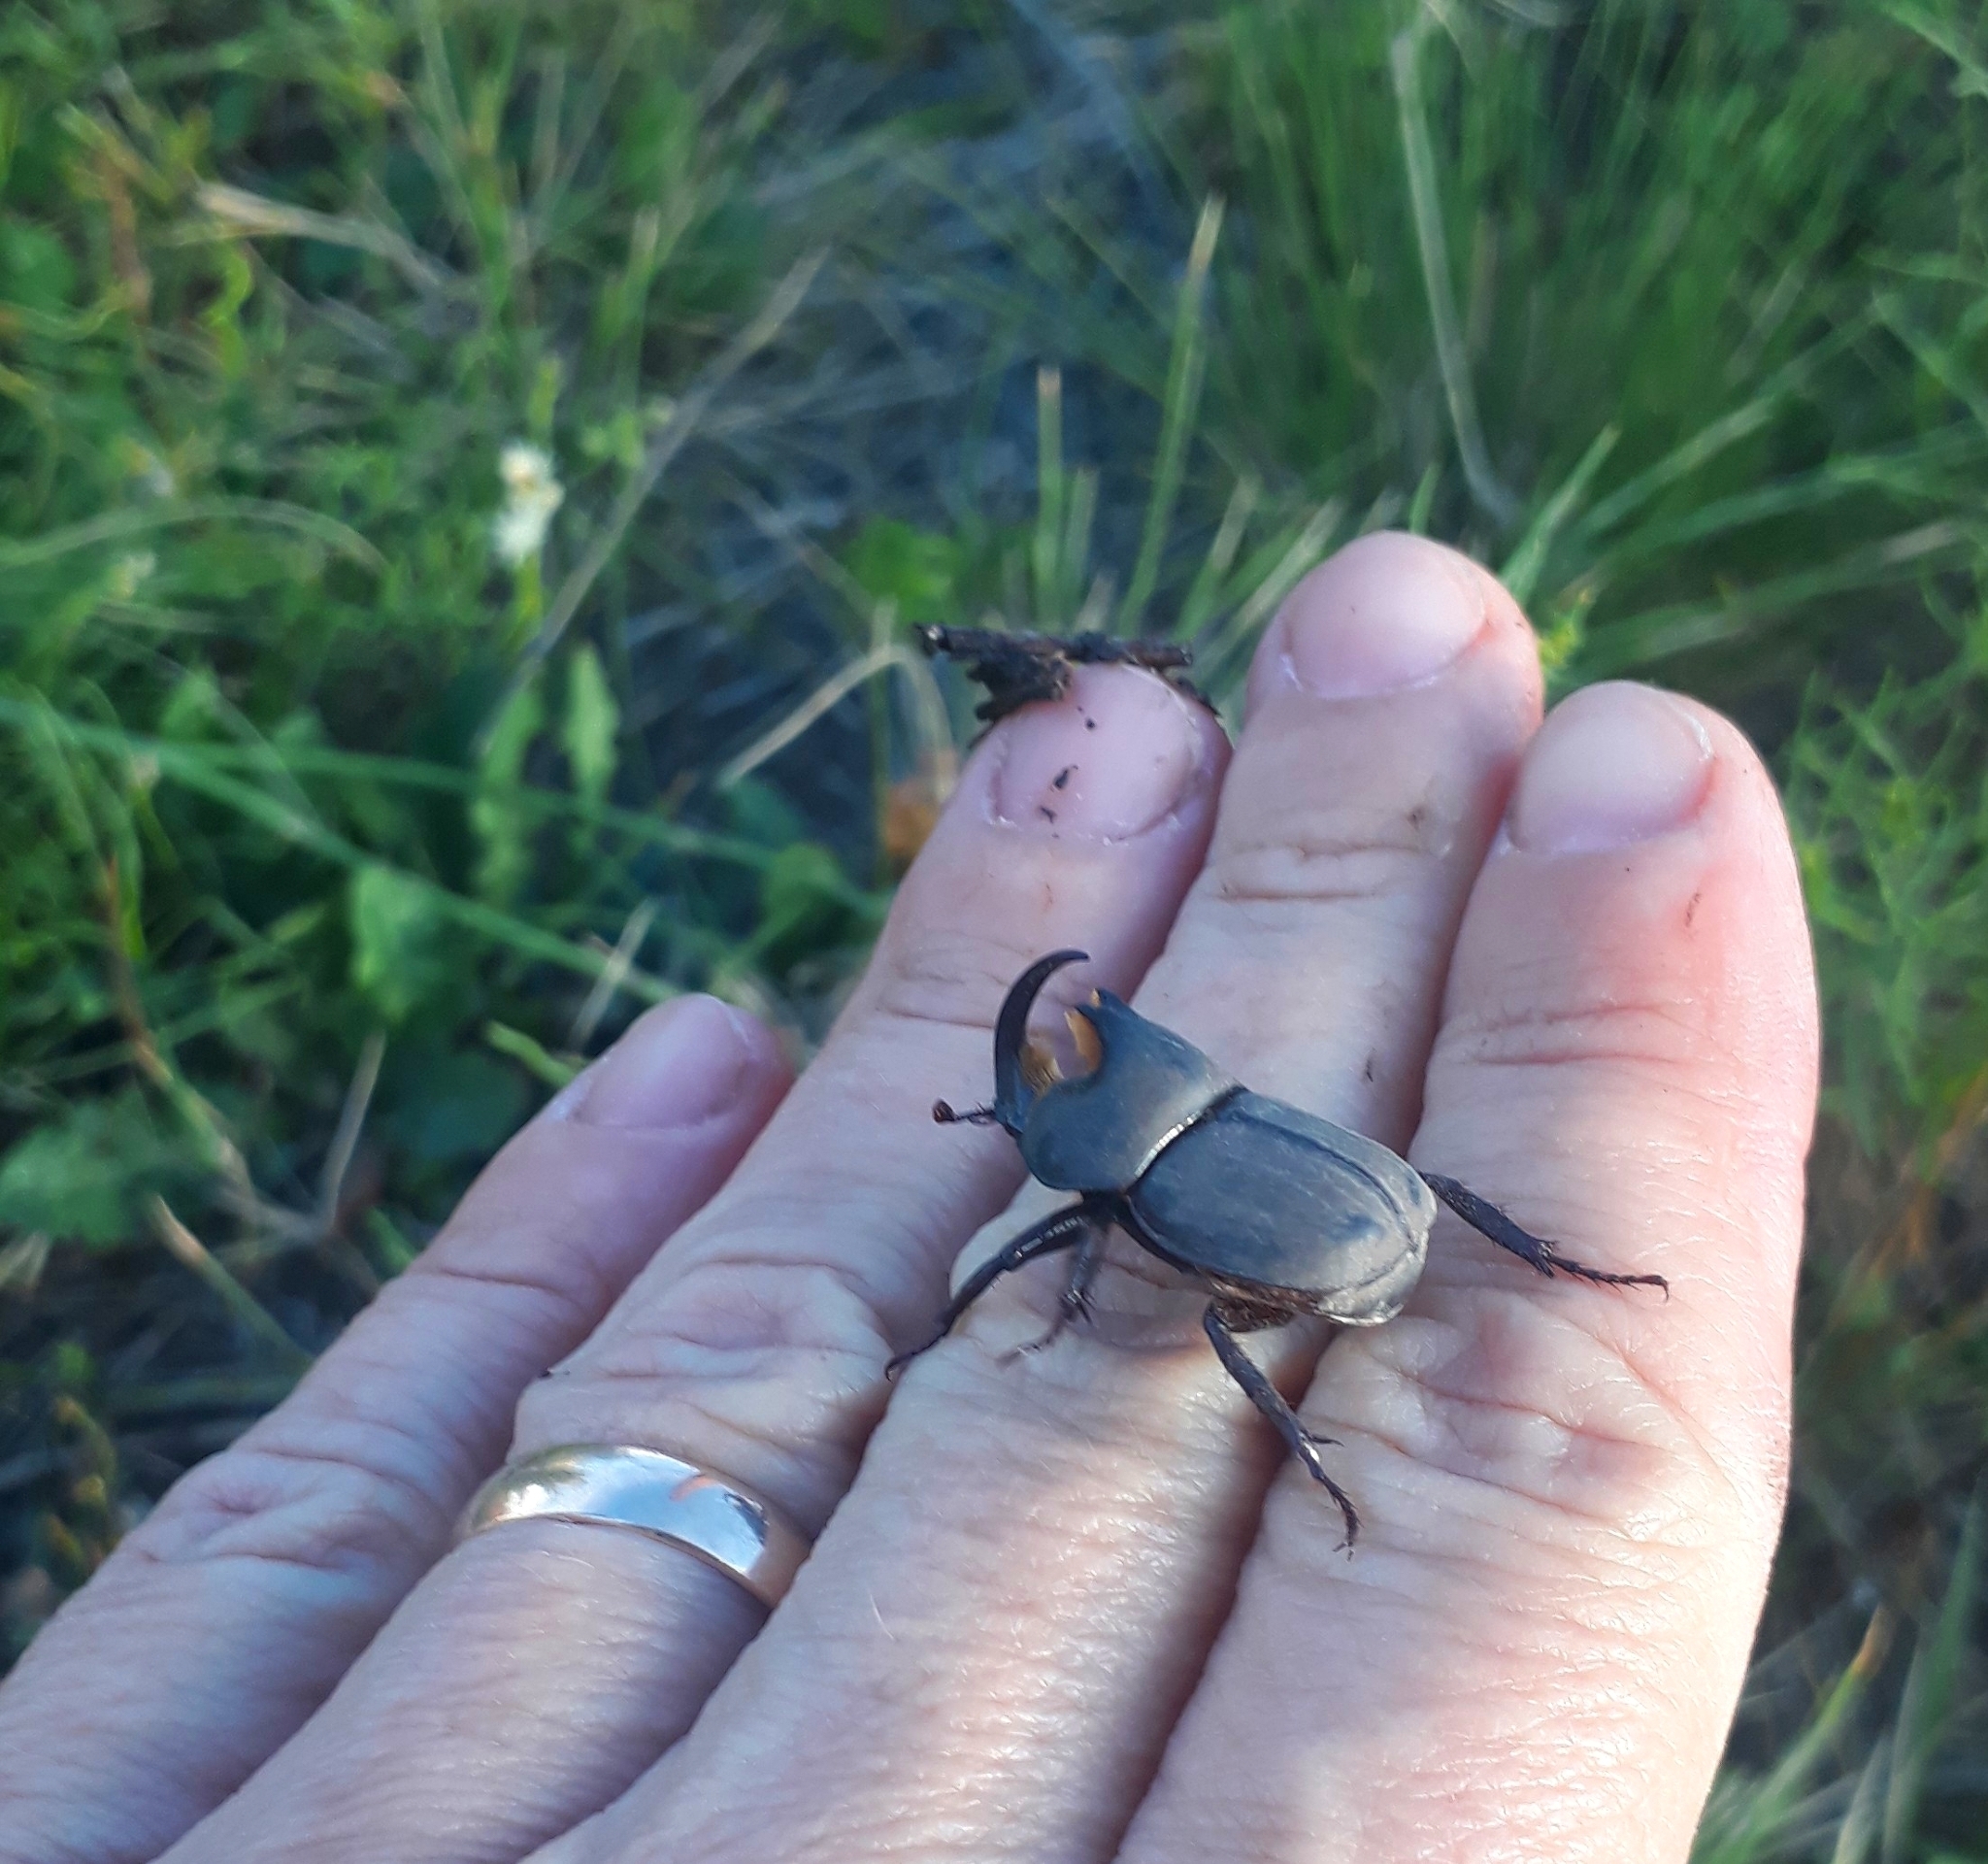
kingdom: Animalia
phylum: Arthropoda
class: Insecta
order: Coleoptera
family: Scarabaeidae
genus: Diloboderus
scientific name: Diloboderus abderus
